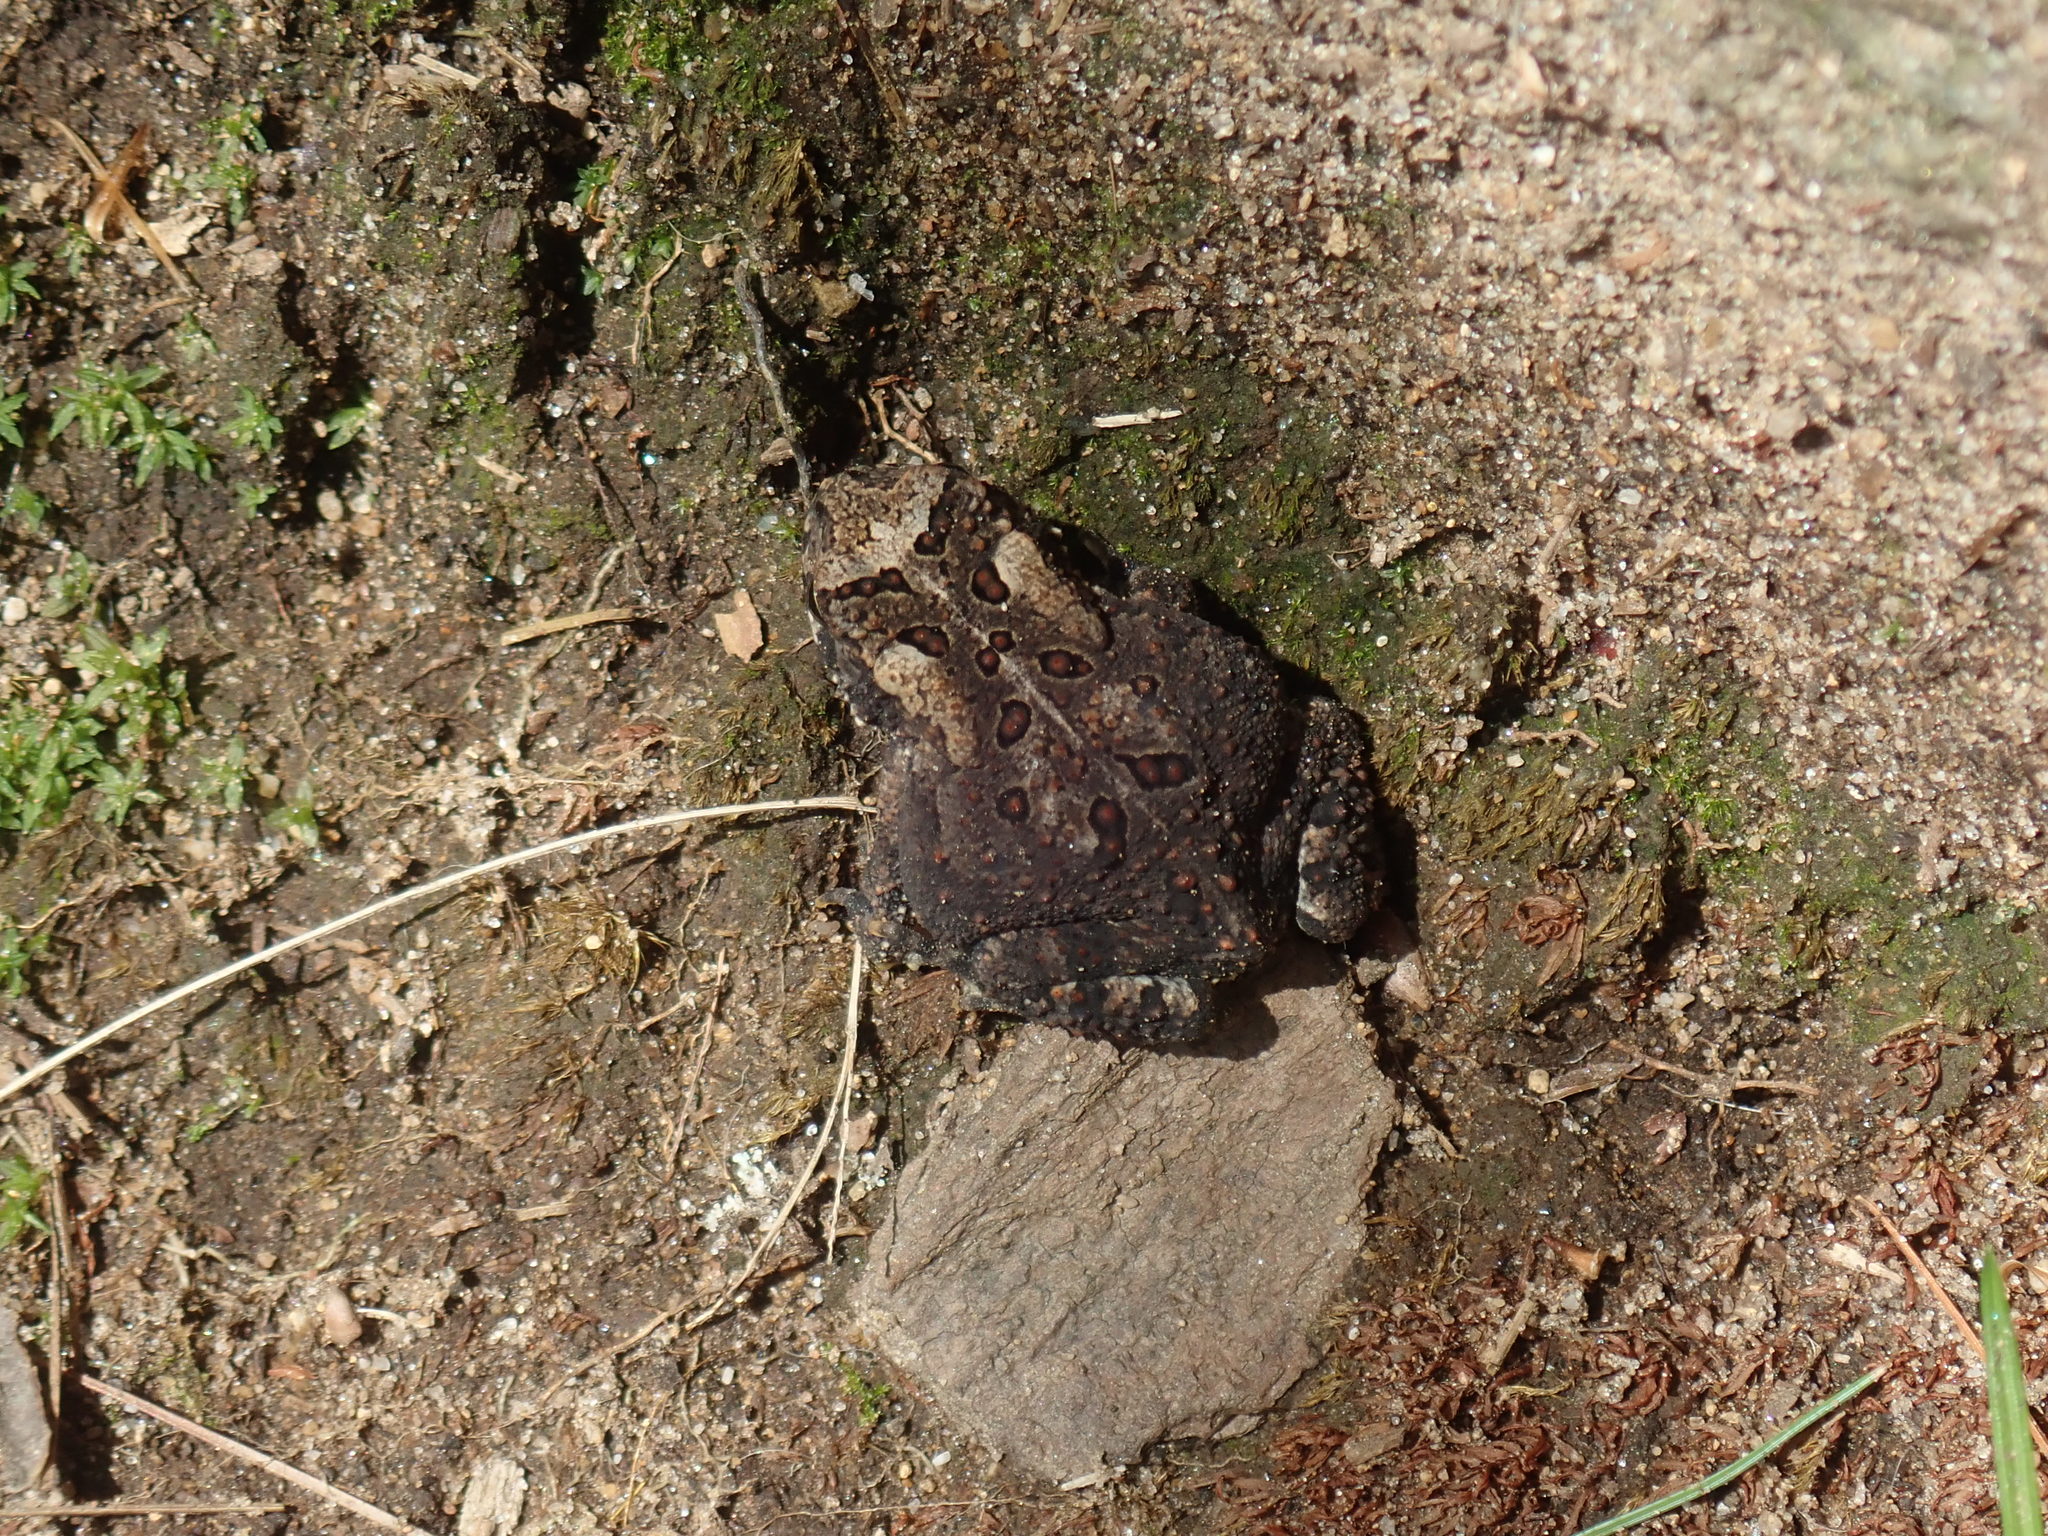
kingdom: Animalia
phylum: Chordata
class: Amphibia
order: Anura
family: Bufonidae
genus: Anaxyrus
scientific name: Anaxyrus americanus
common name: American toad
